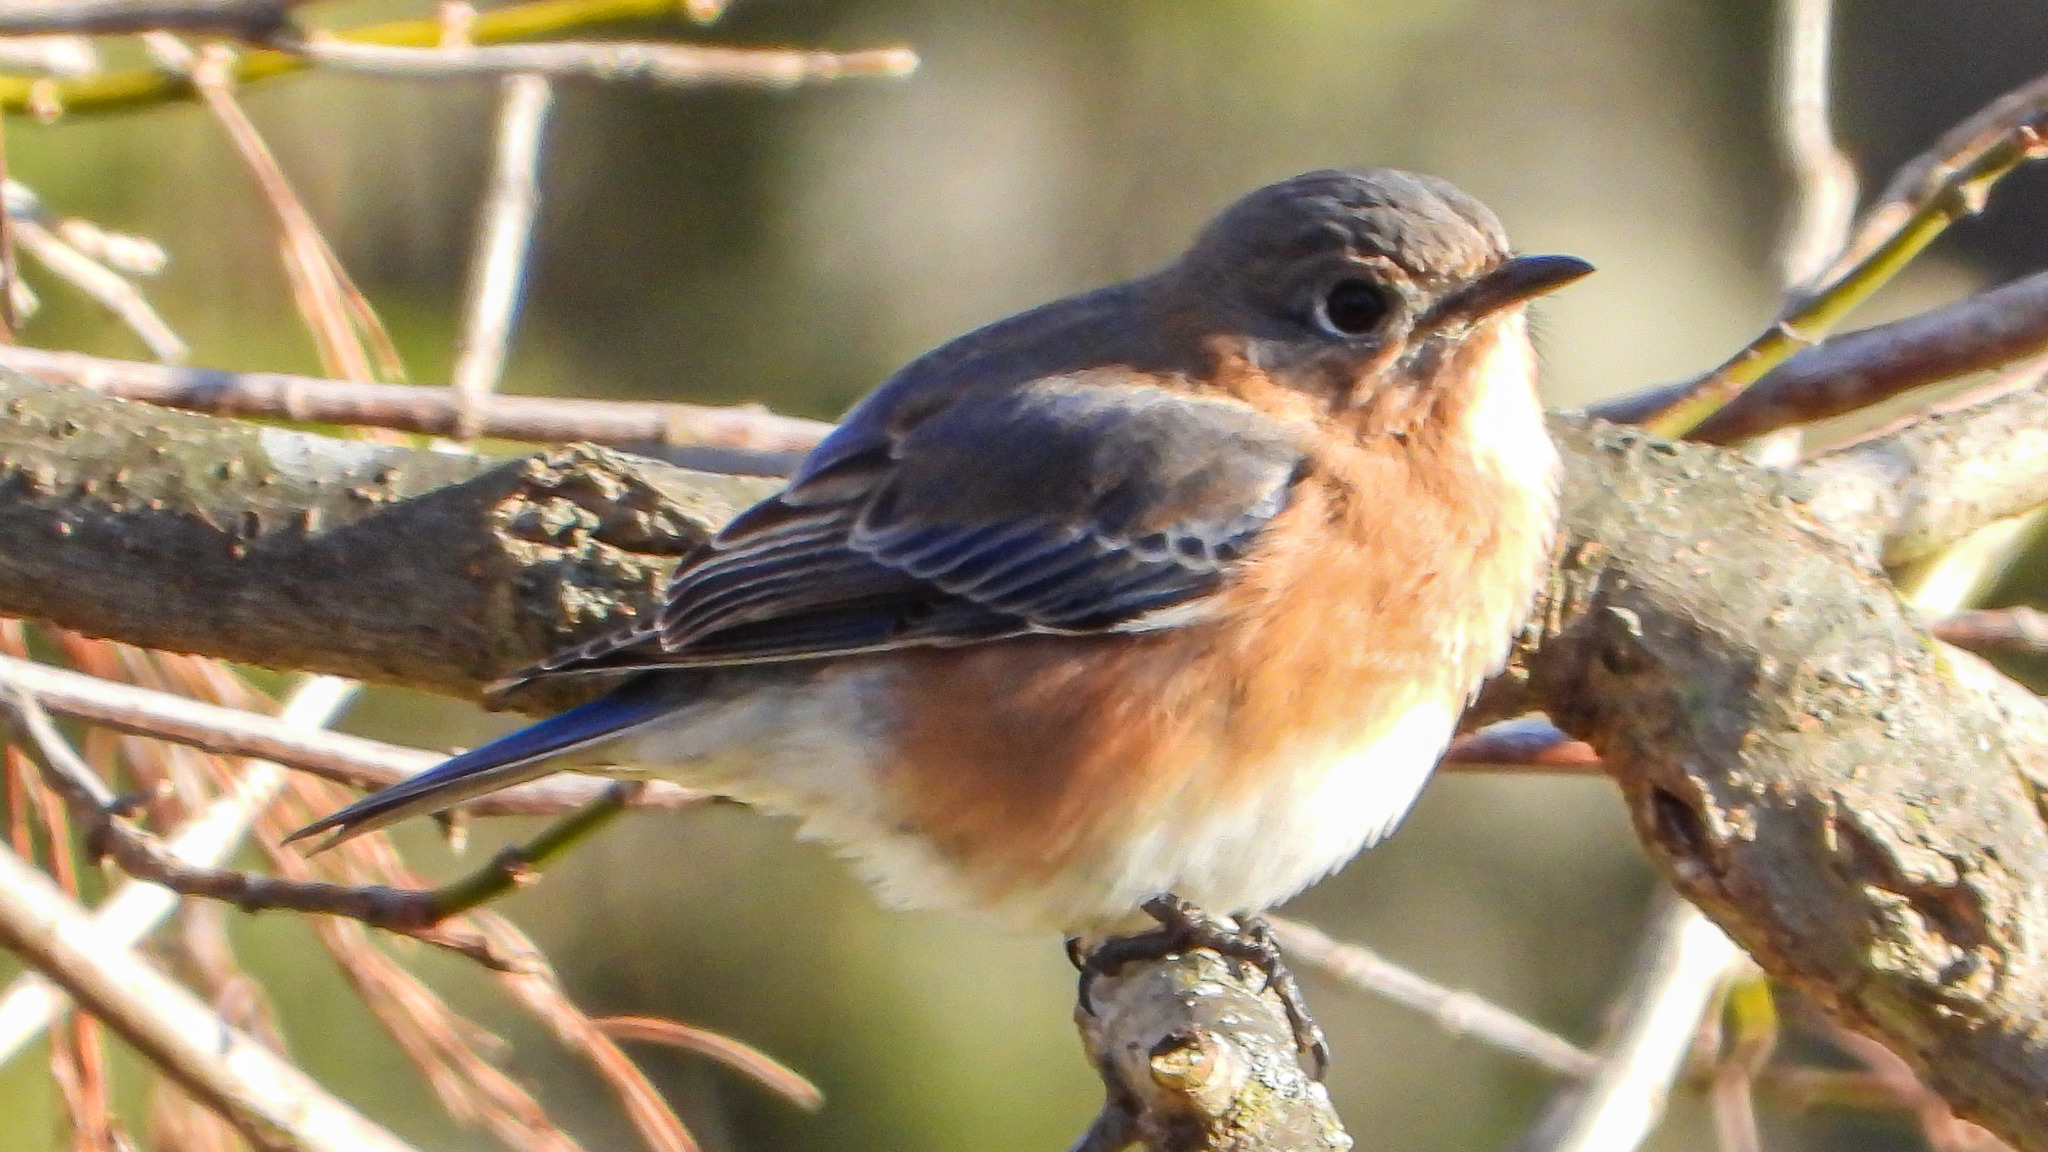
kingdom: Animalia
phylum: Chordata
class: Aves
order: Passeriformes
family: Turdidae
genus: Sialia
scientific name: Sialia sialis
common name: Eastern bluebird
